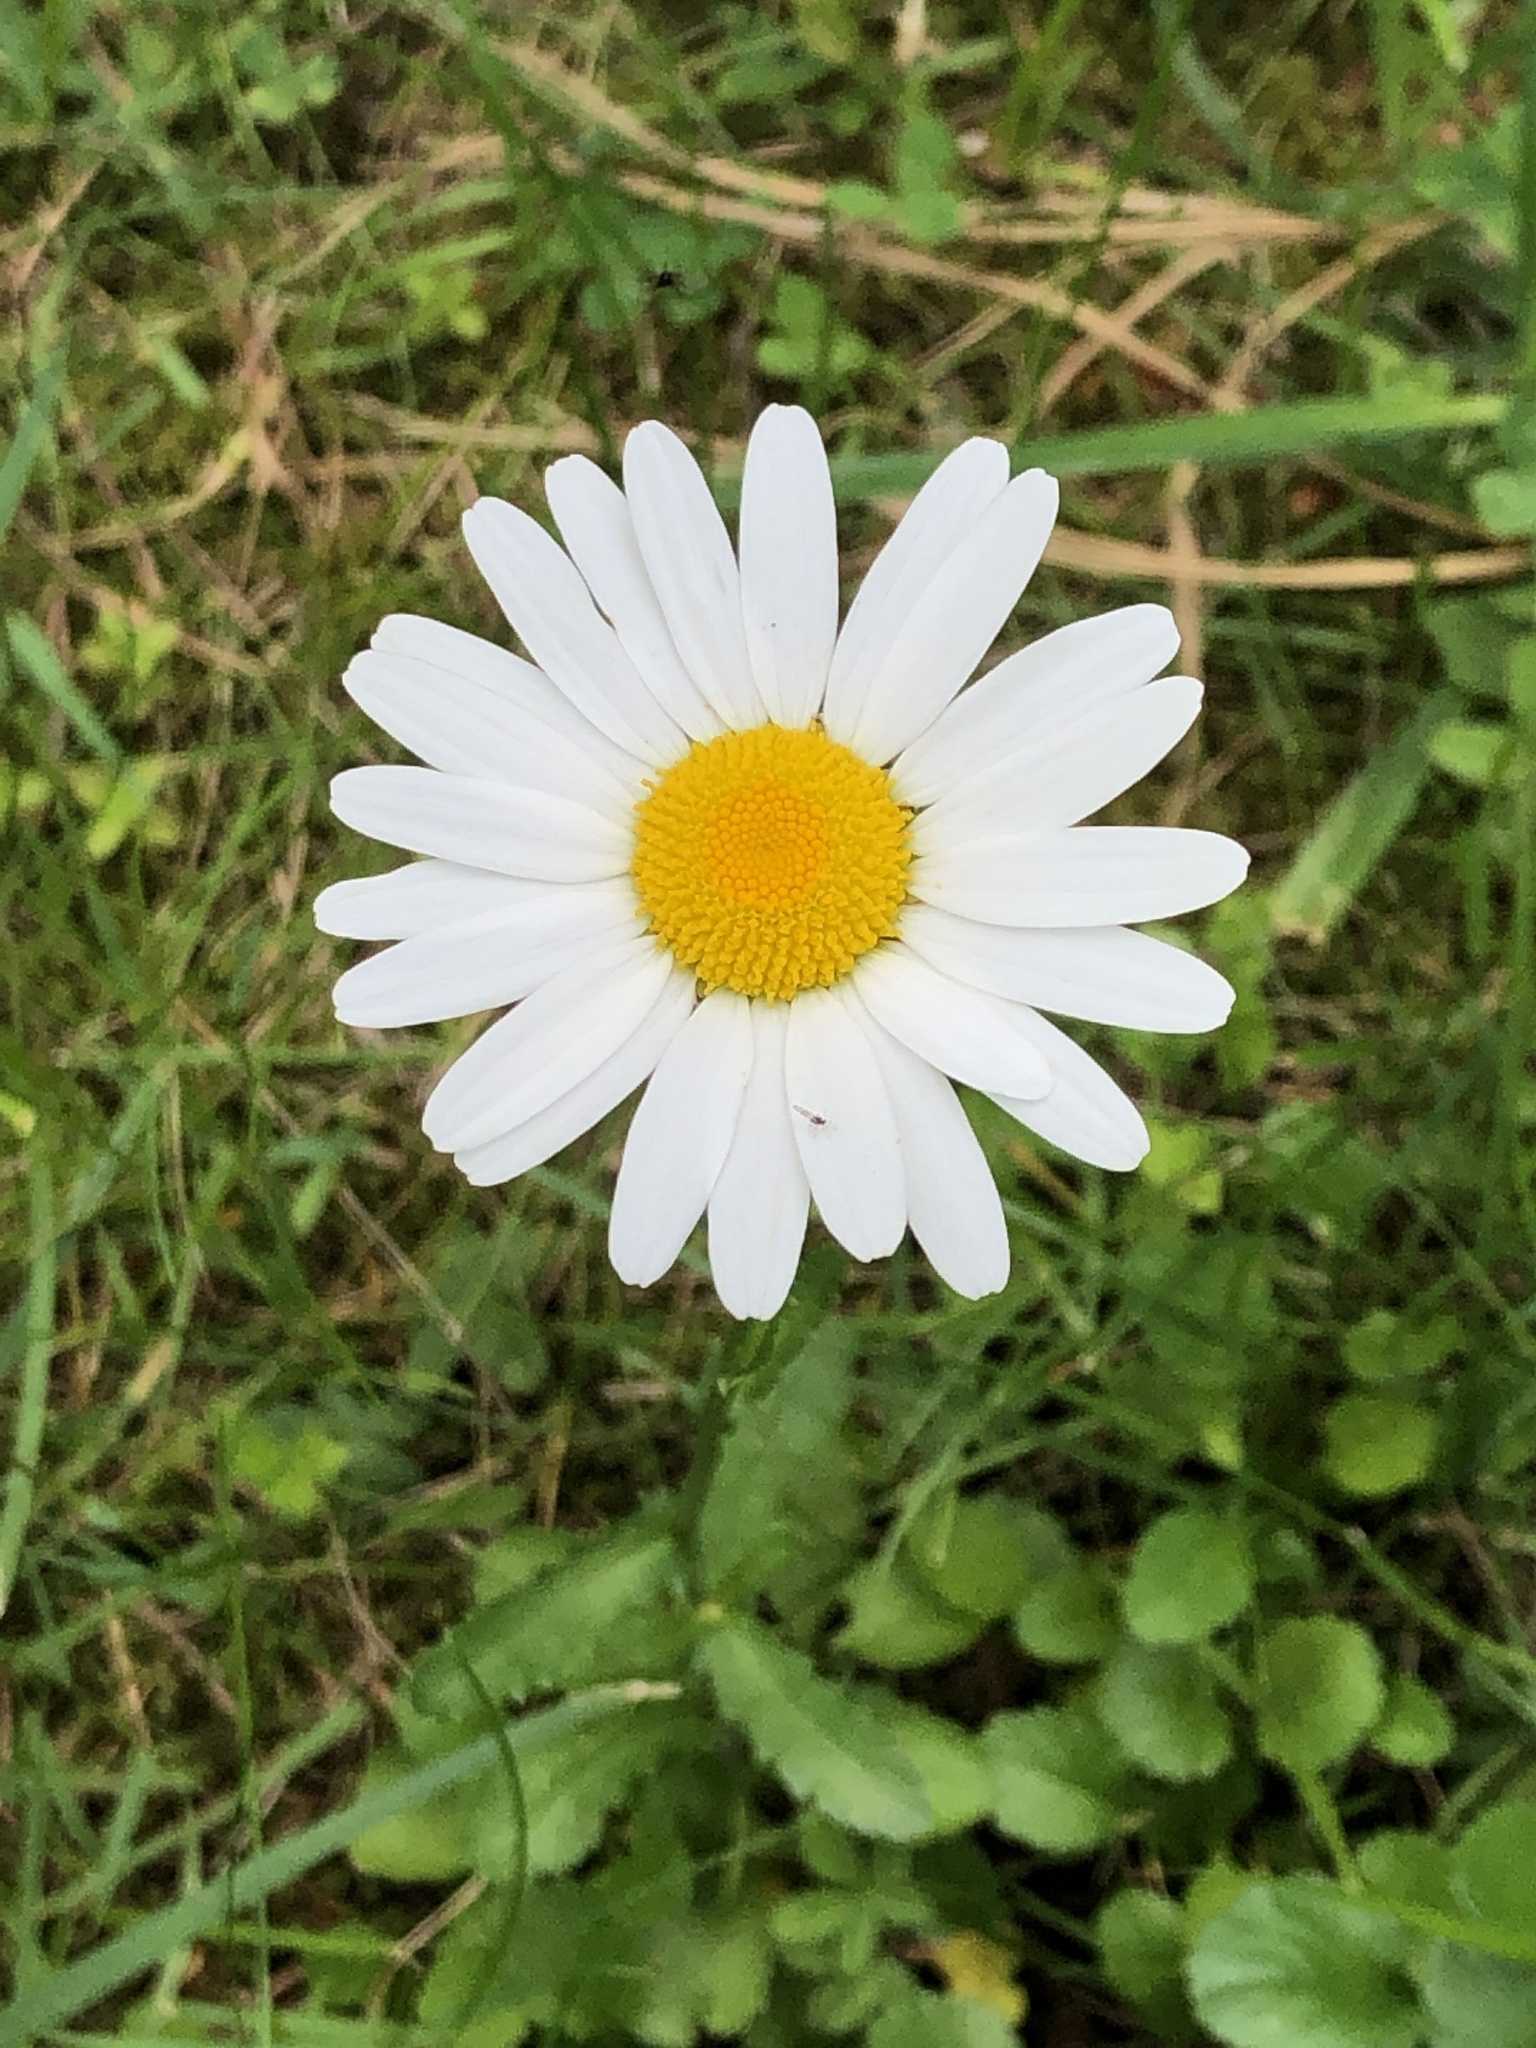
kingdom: Plantae
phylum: Tracheophyta
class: Magnoliopsida
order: Asterales
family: Asteraceae
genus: Leucanthemum
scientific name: Leucanthemum vulgare
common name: Oxeye daisy
